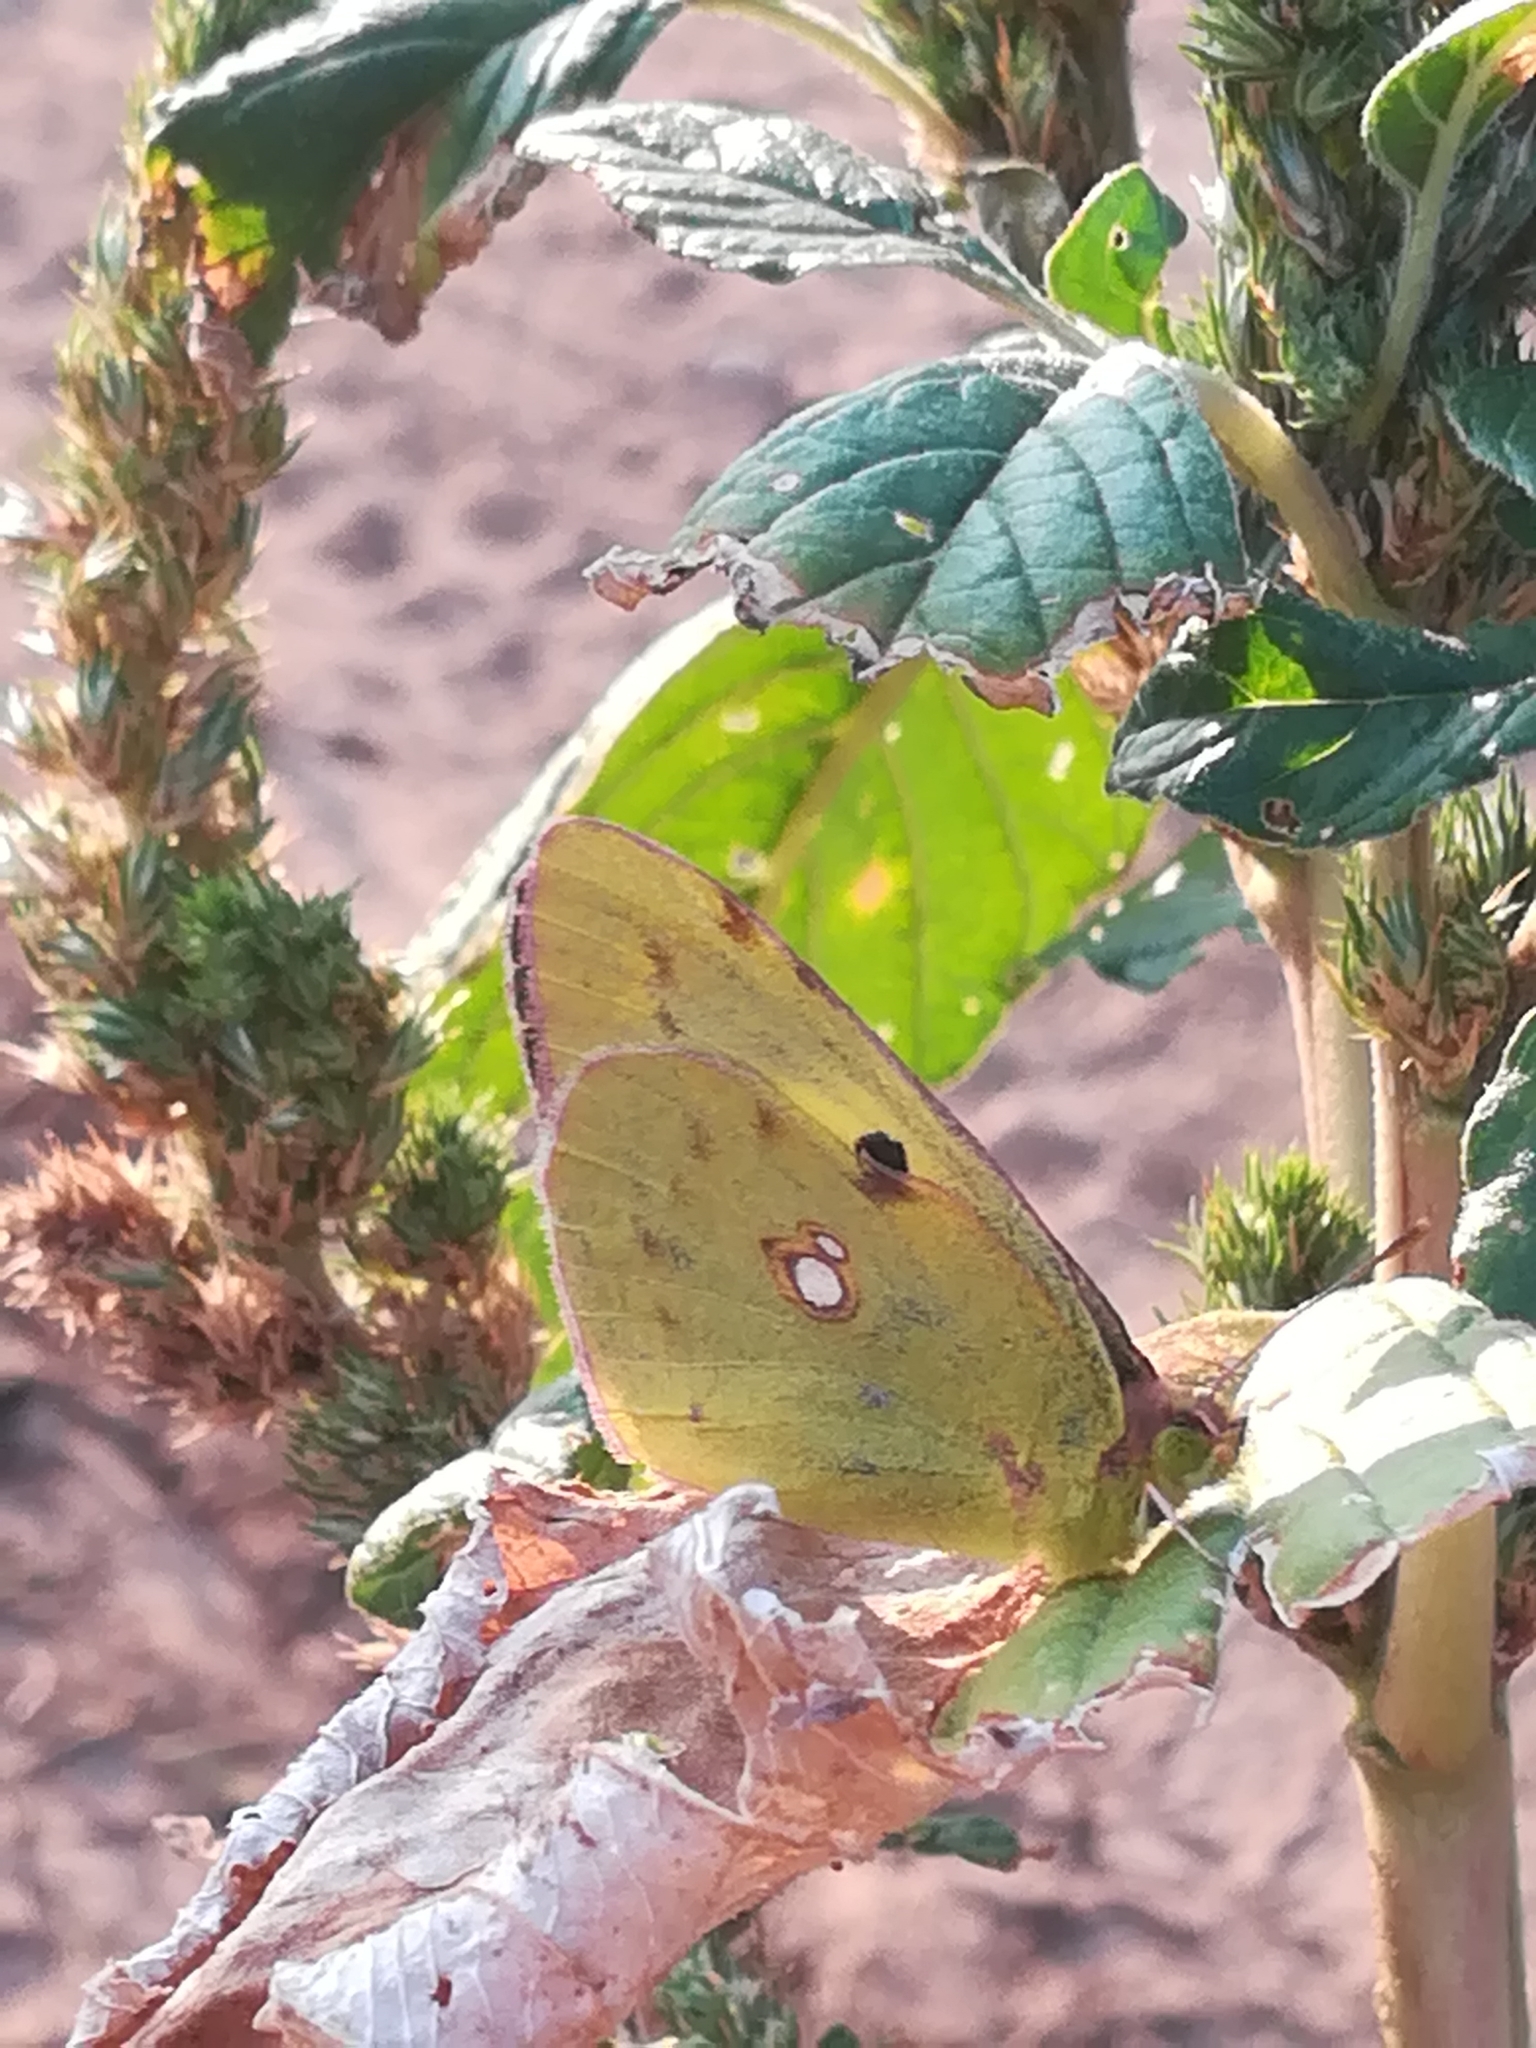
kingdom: Animalia
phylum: Arthropoda
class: Insecta
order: Lepidoptera
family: Pieridae
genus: Colias
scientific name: Colias croceus
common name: Clouded yellow
